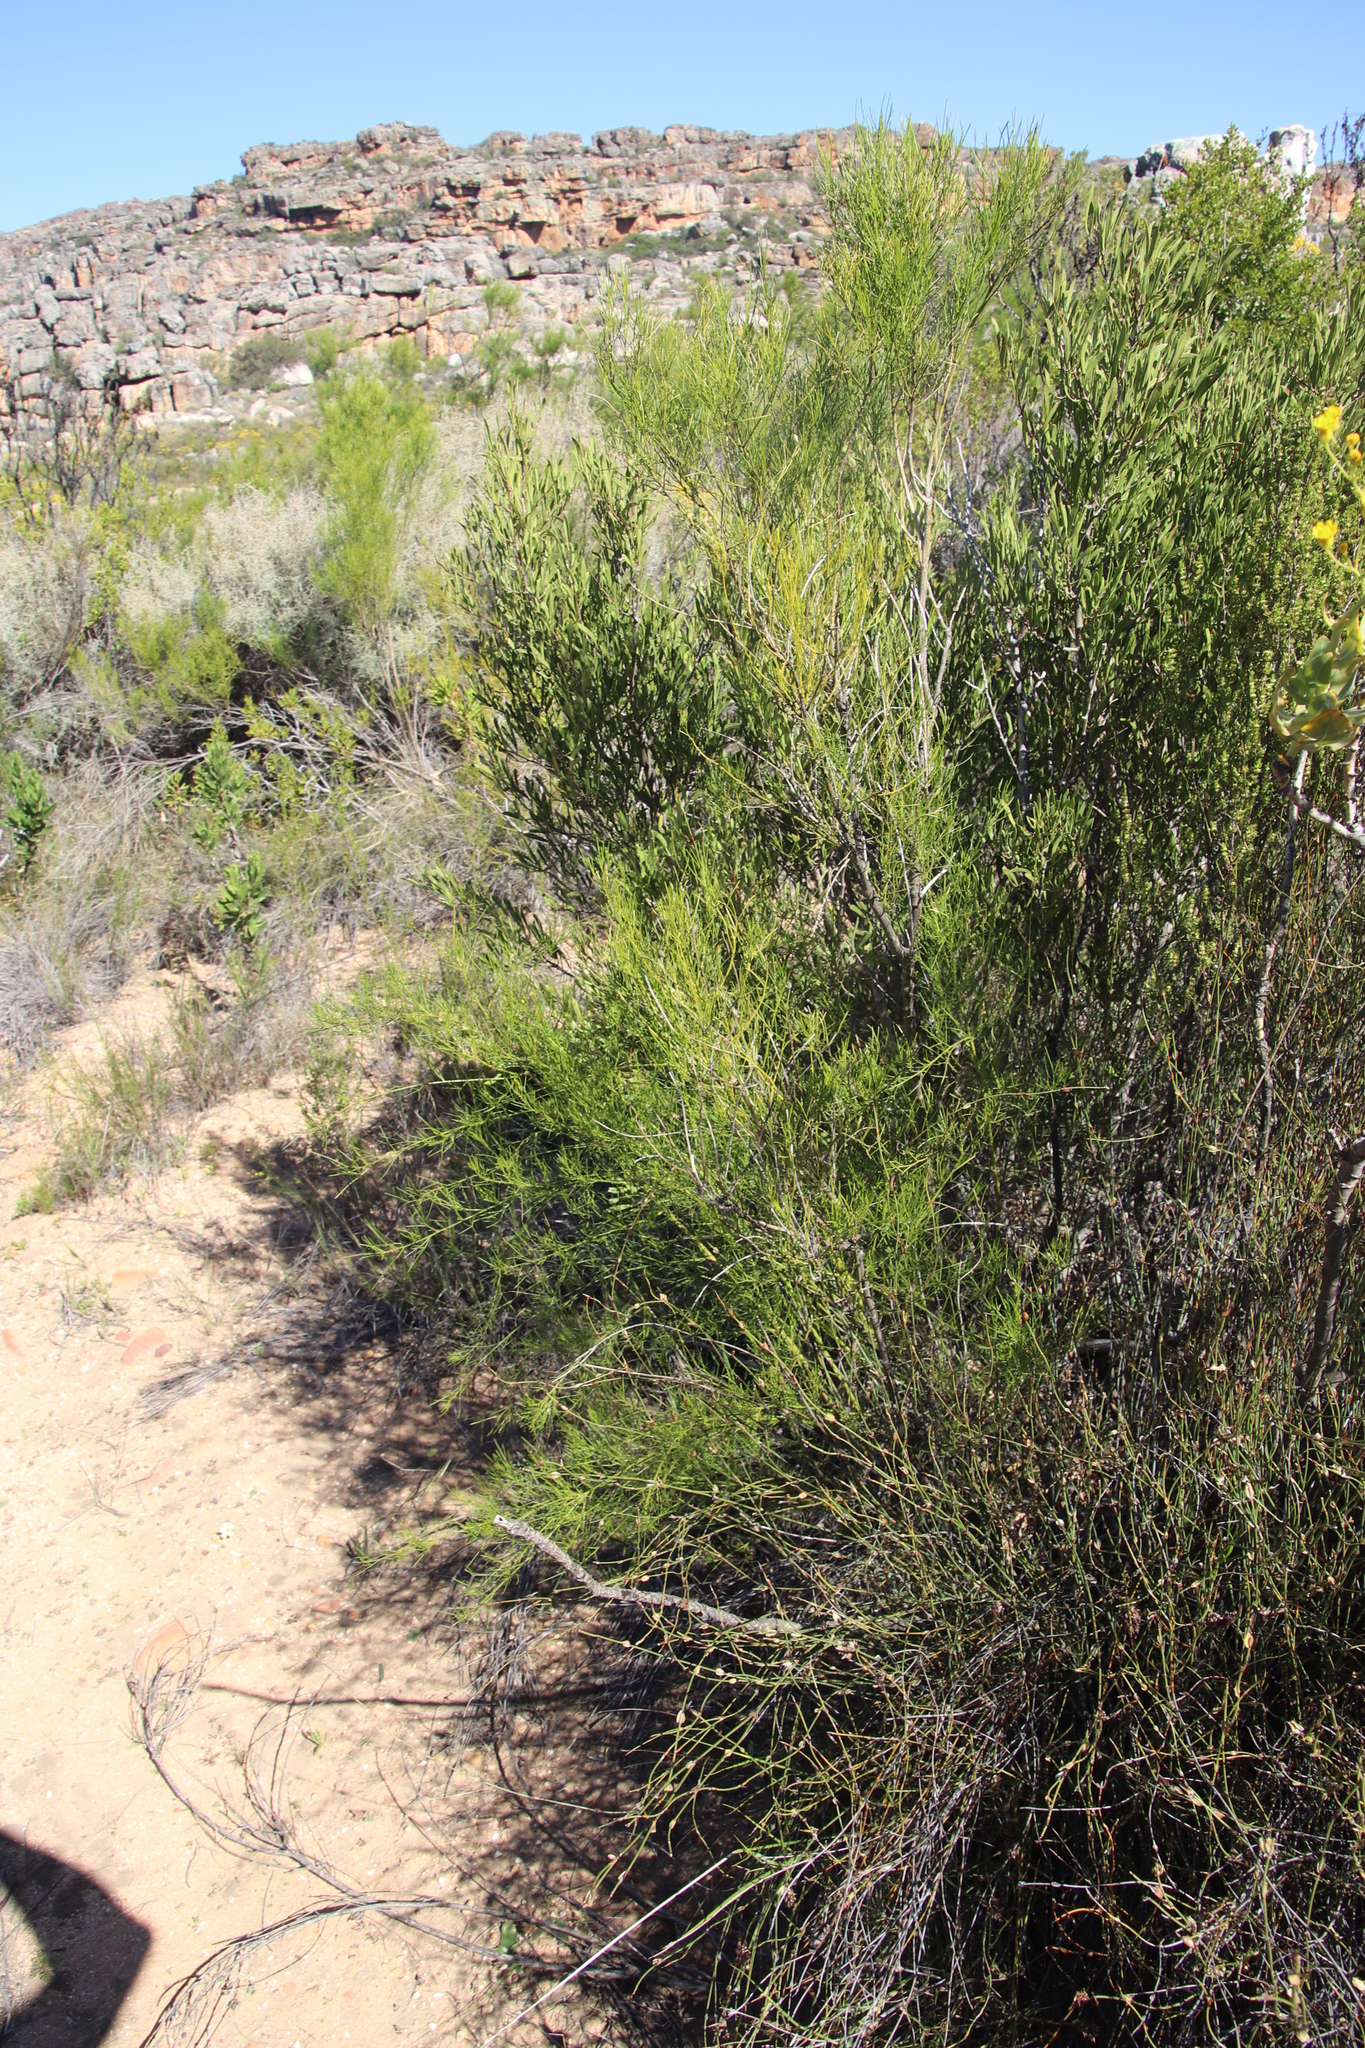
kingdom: Plantae
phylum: Tracheophyta
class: Magnoliopsida
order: Fabales
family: Fabaceae
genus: Psoralea
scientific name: Psoralea
